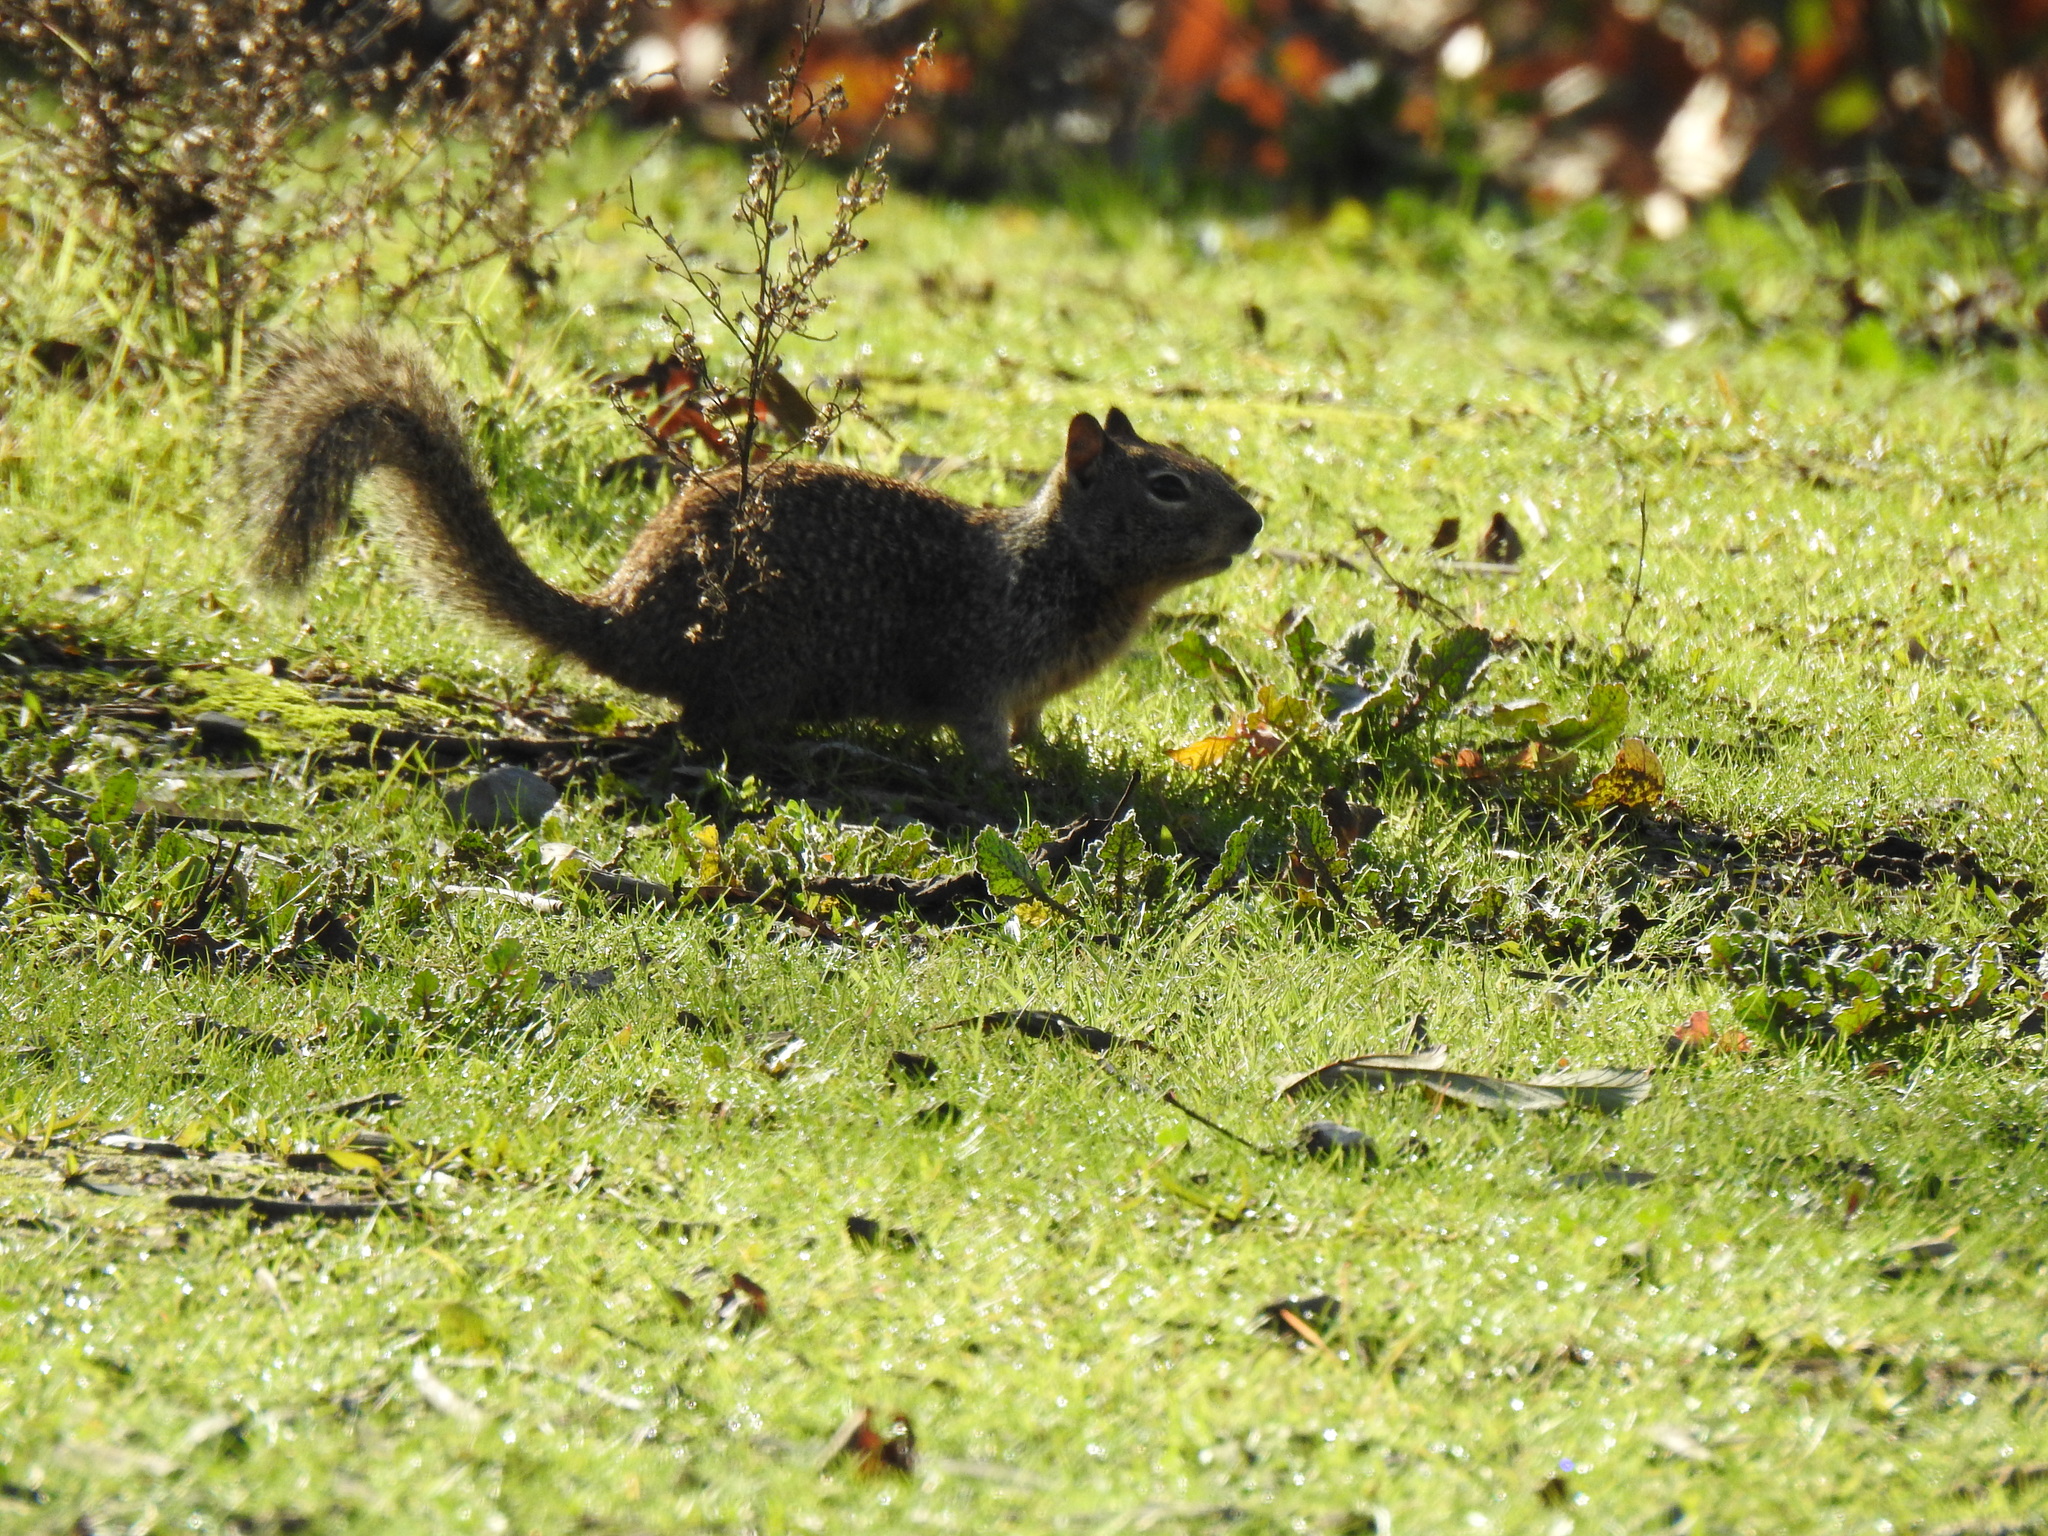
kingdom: Animalia
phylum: Chordata
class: Mammalia
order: Rodentia
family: Sciuridae
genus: Otospermophilus
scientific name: Otospermophilus beecheyi
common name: California ground squirrel
